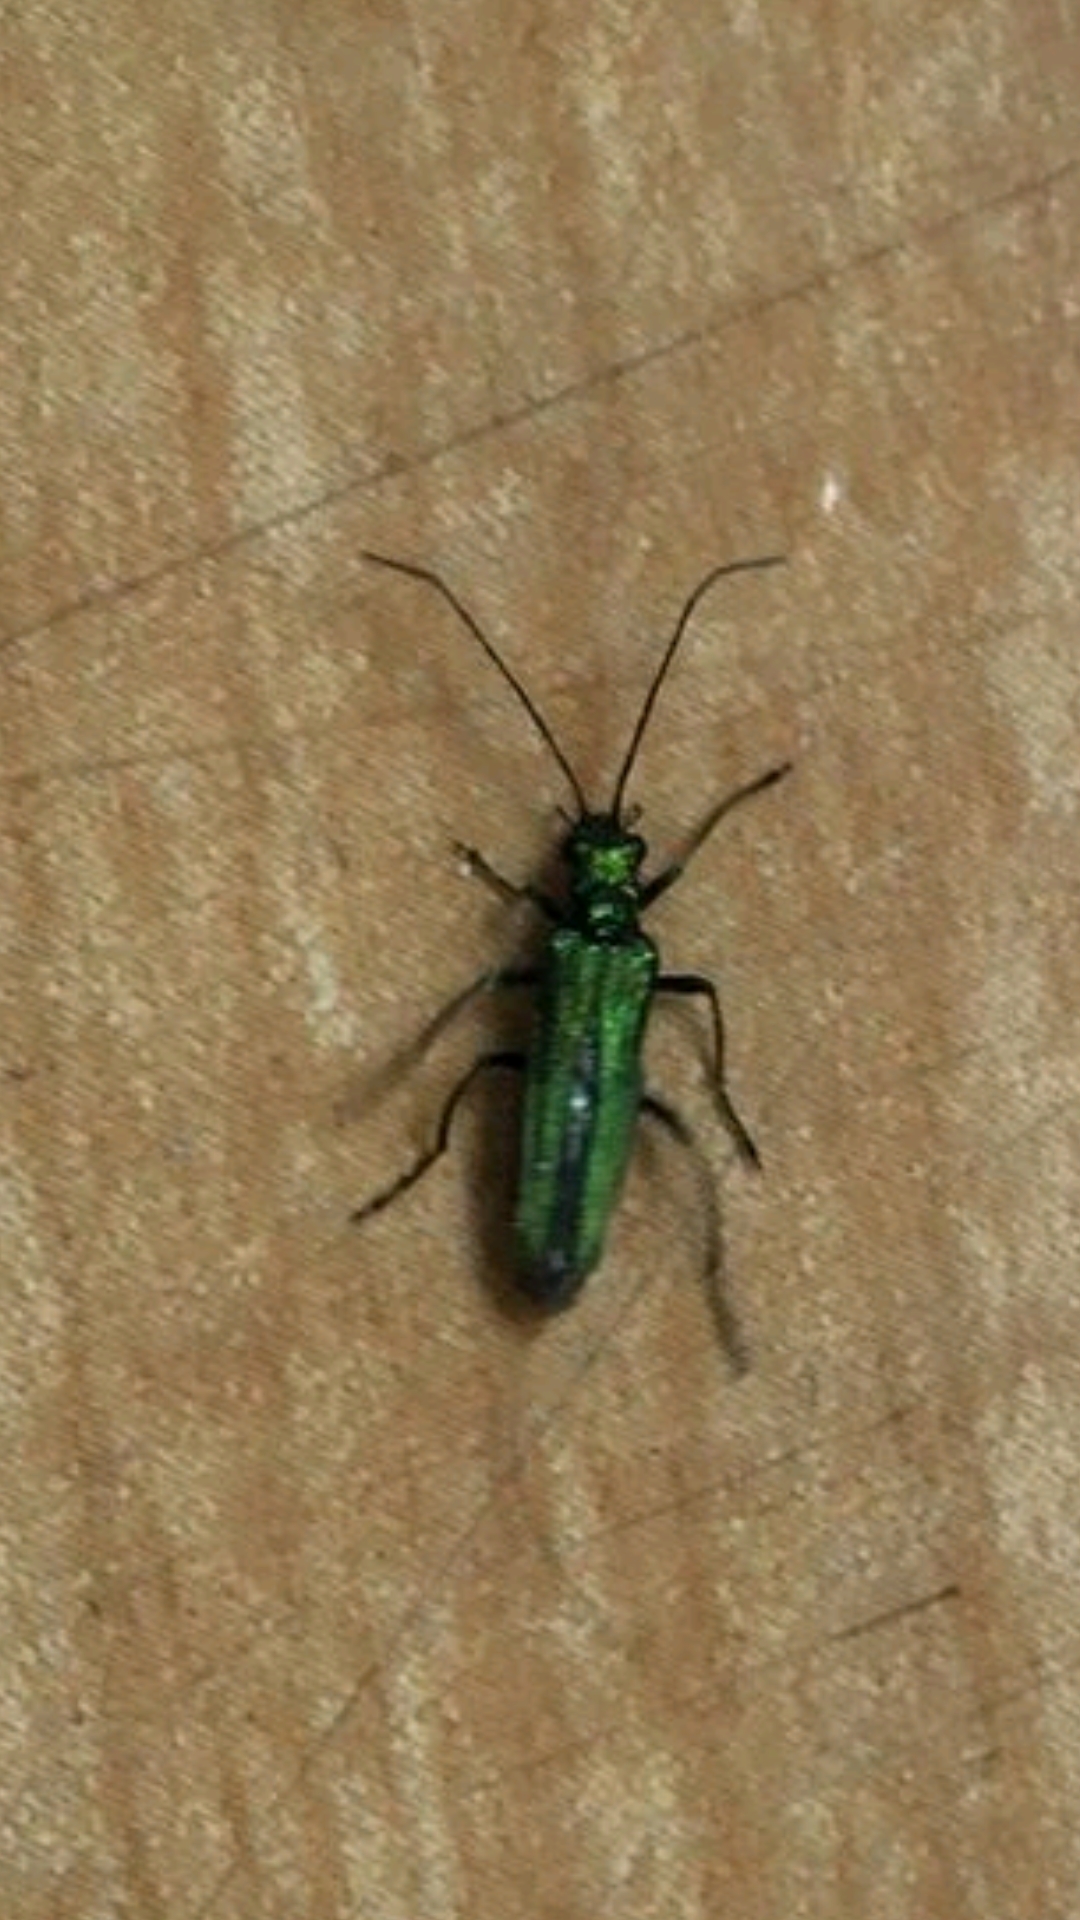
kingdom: Animalia
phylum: Arthropoda
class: Insecta
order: Coleoptera
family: Oedemeridae
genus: Oedemera
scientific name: Oedemera nobilis
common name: Swollen-thighed beetle
